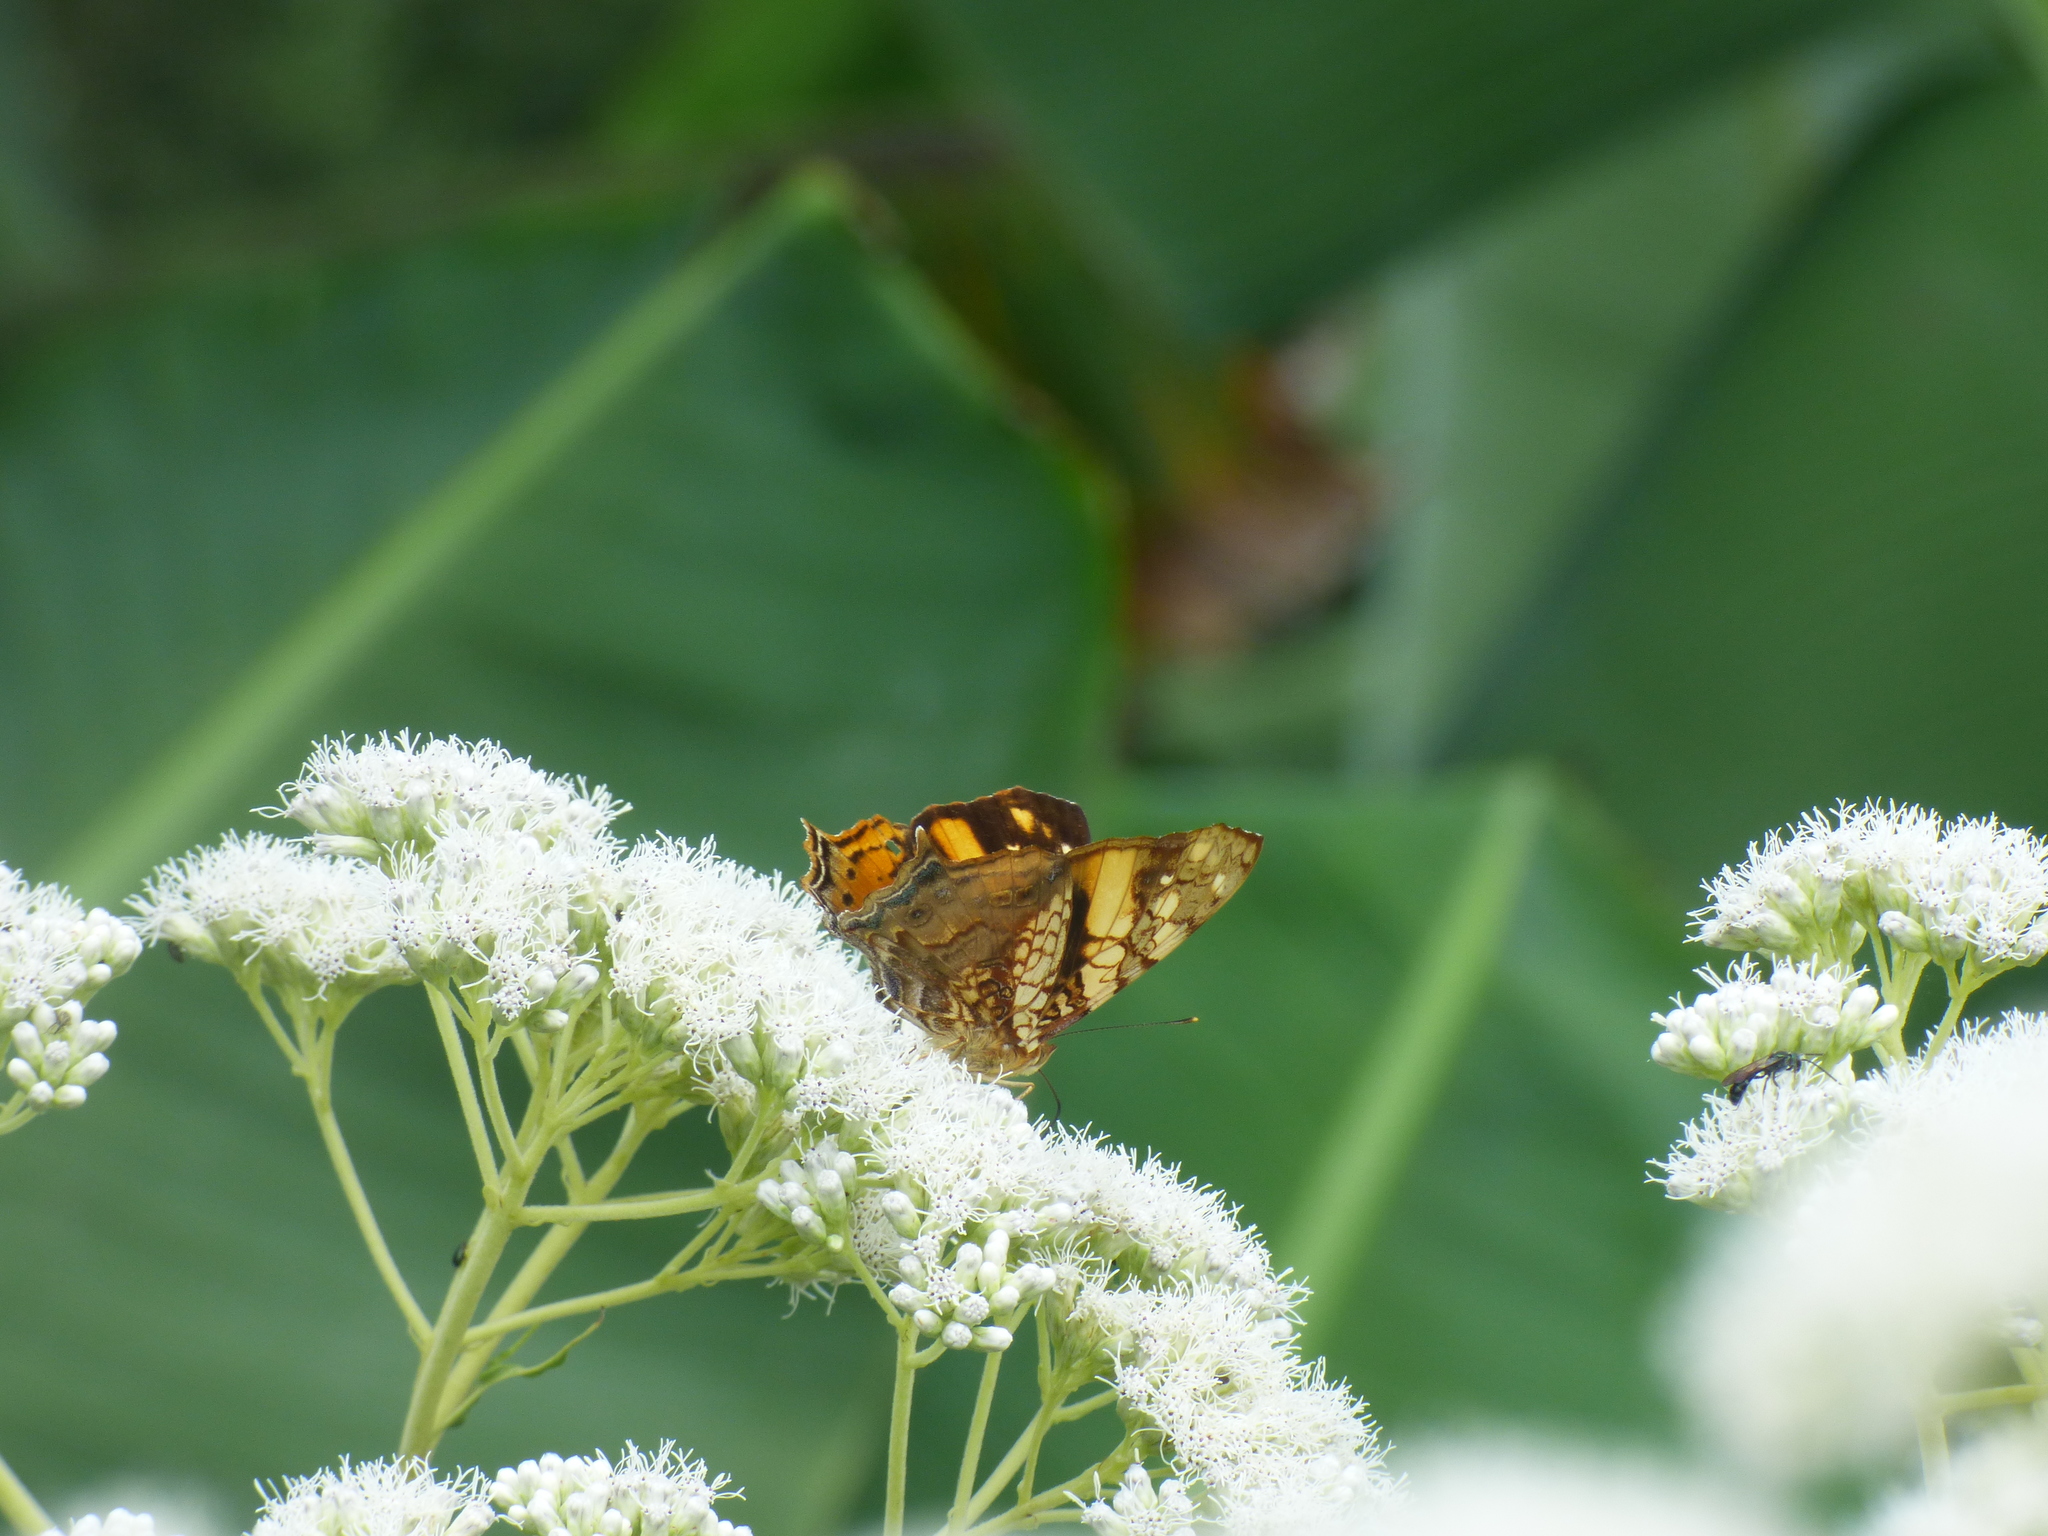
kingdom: Animalia
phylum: Arthropoda
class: Insecta
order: Lepidoptera
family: Nymphalidae
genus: Hypanartia
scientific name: Hypanartia lethe
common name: Orange mapwing
